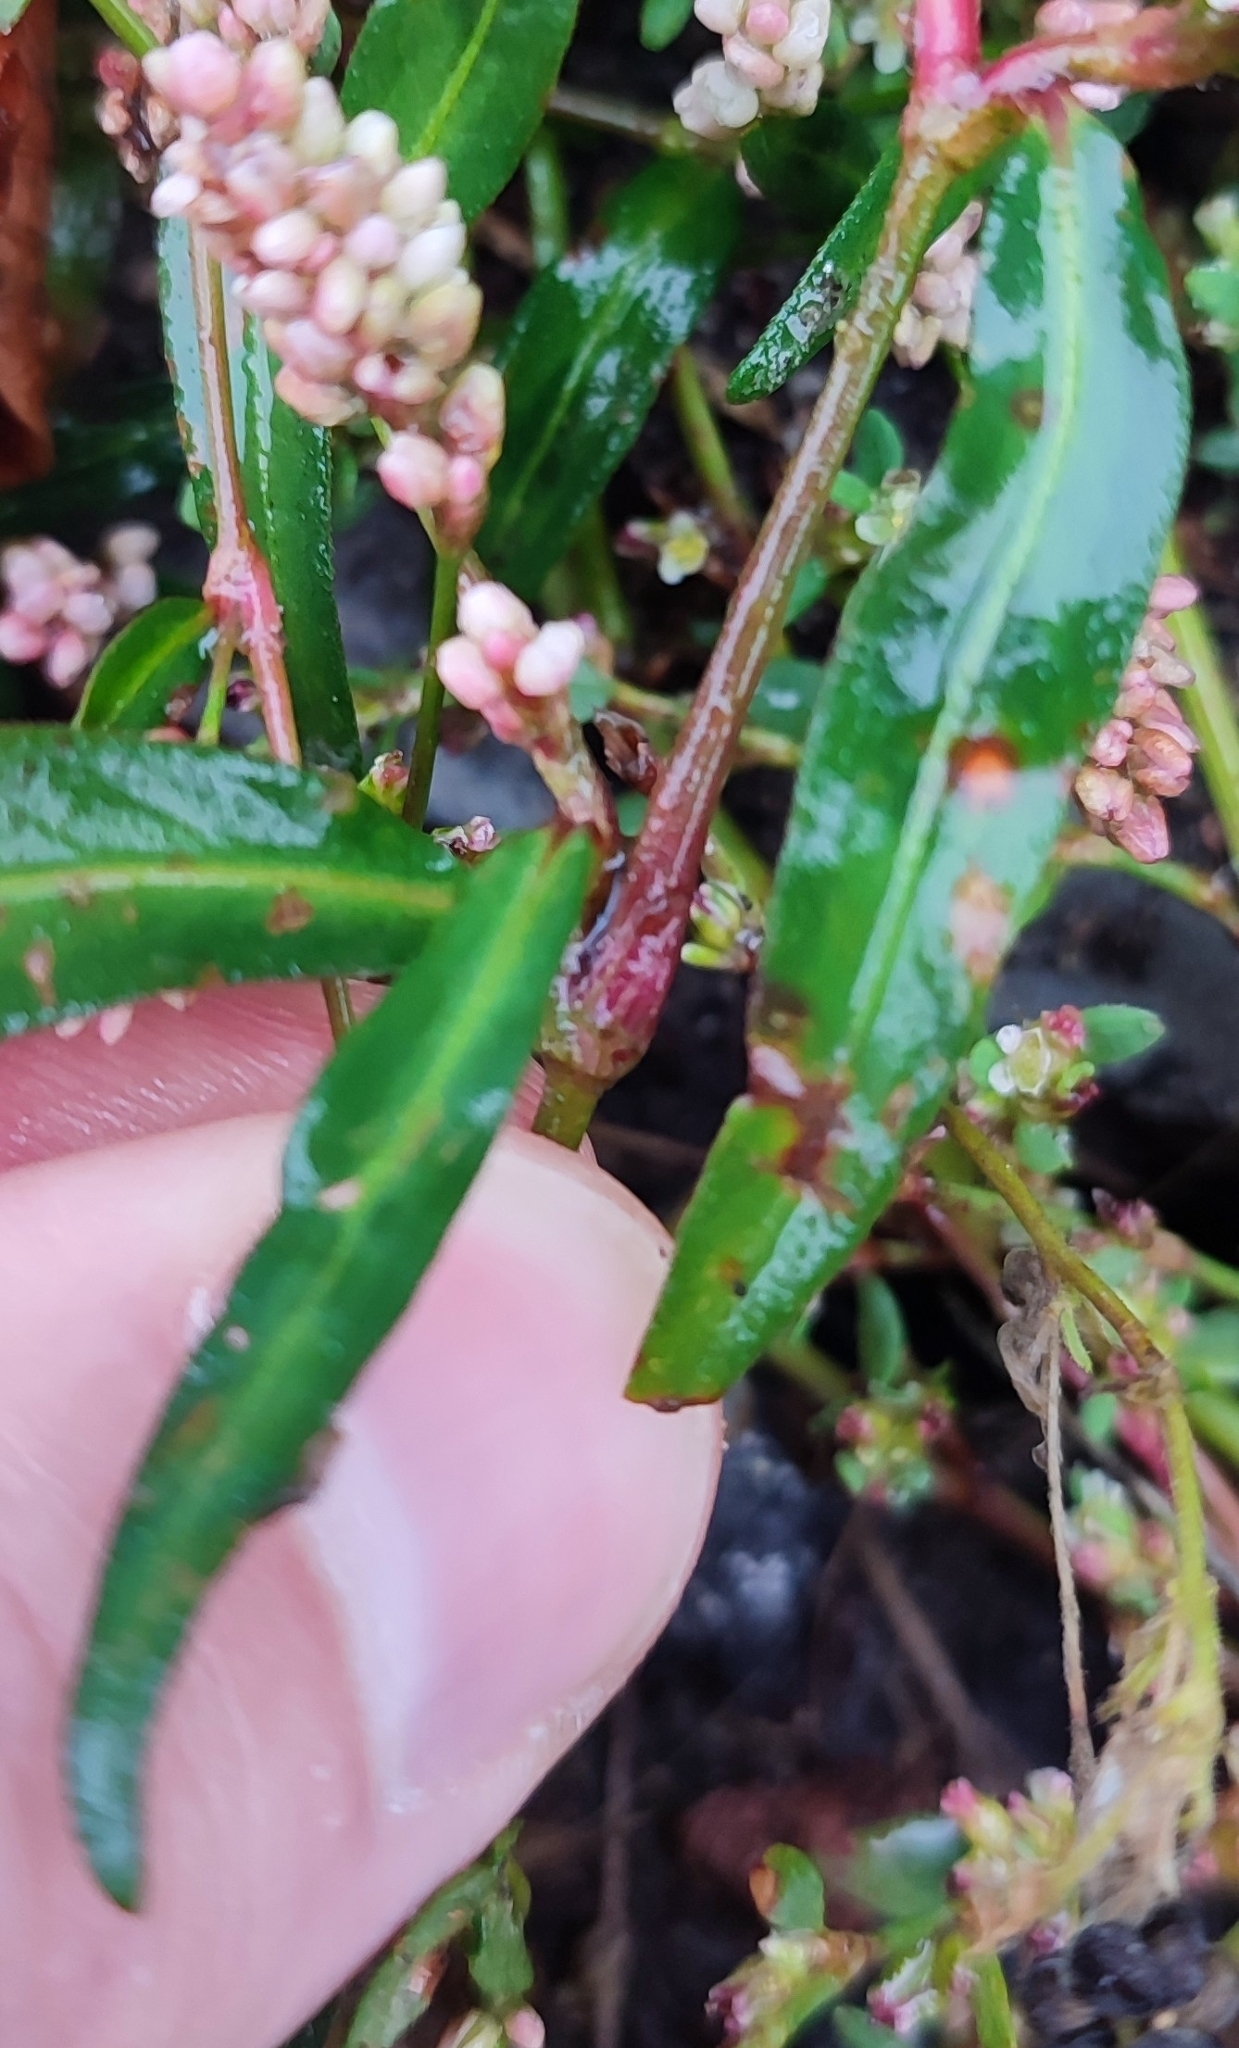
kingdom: Plantae
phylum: Tracheophyta
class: Magnoliopsida
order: Caryophyllales
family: Polygonaceae
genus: Persicaria
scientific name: Persicaria maculosa
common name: Redshank
